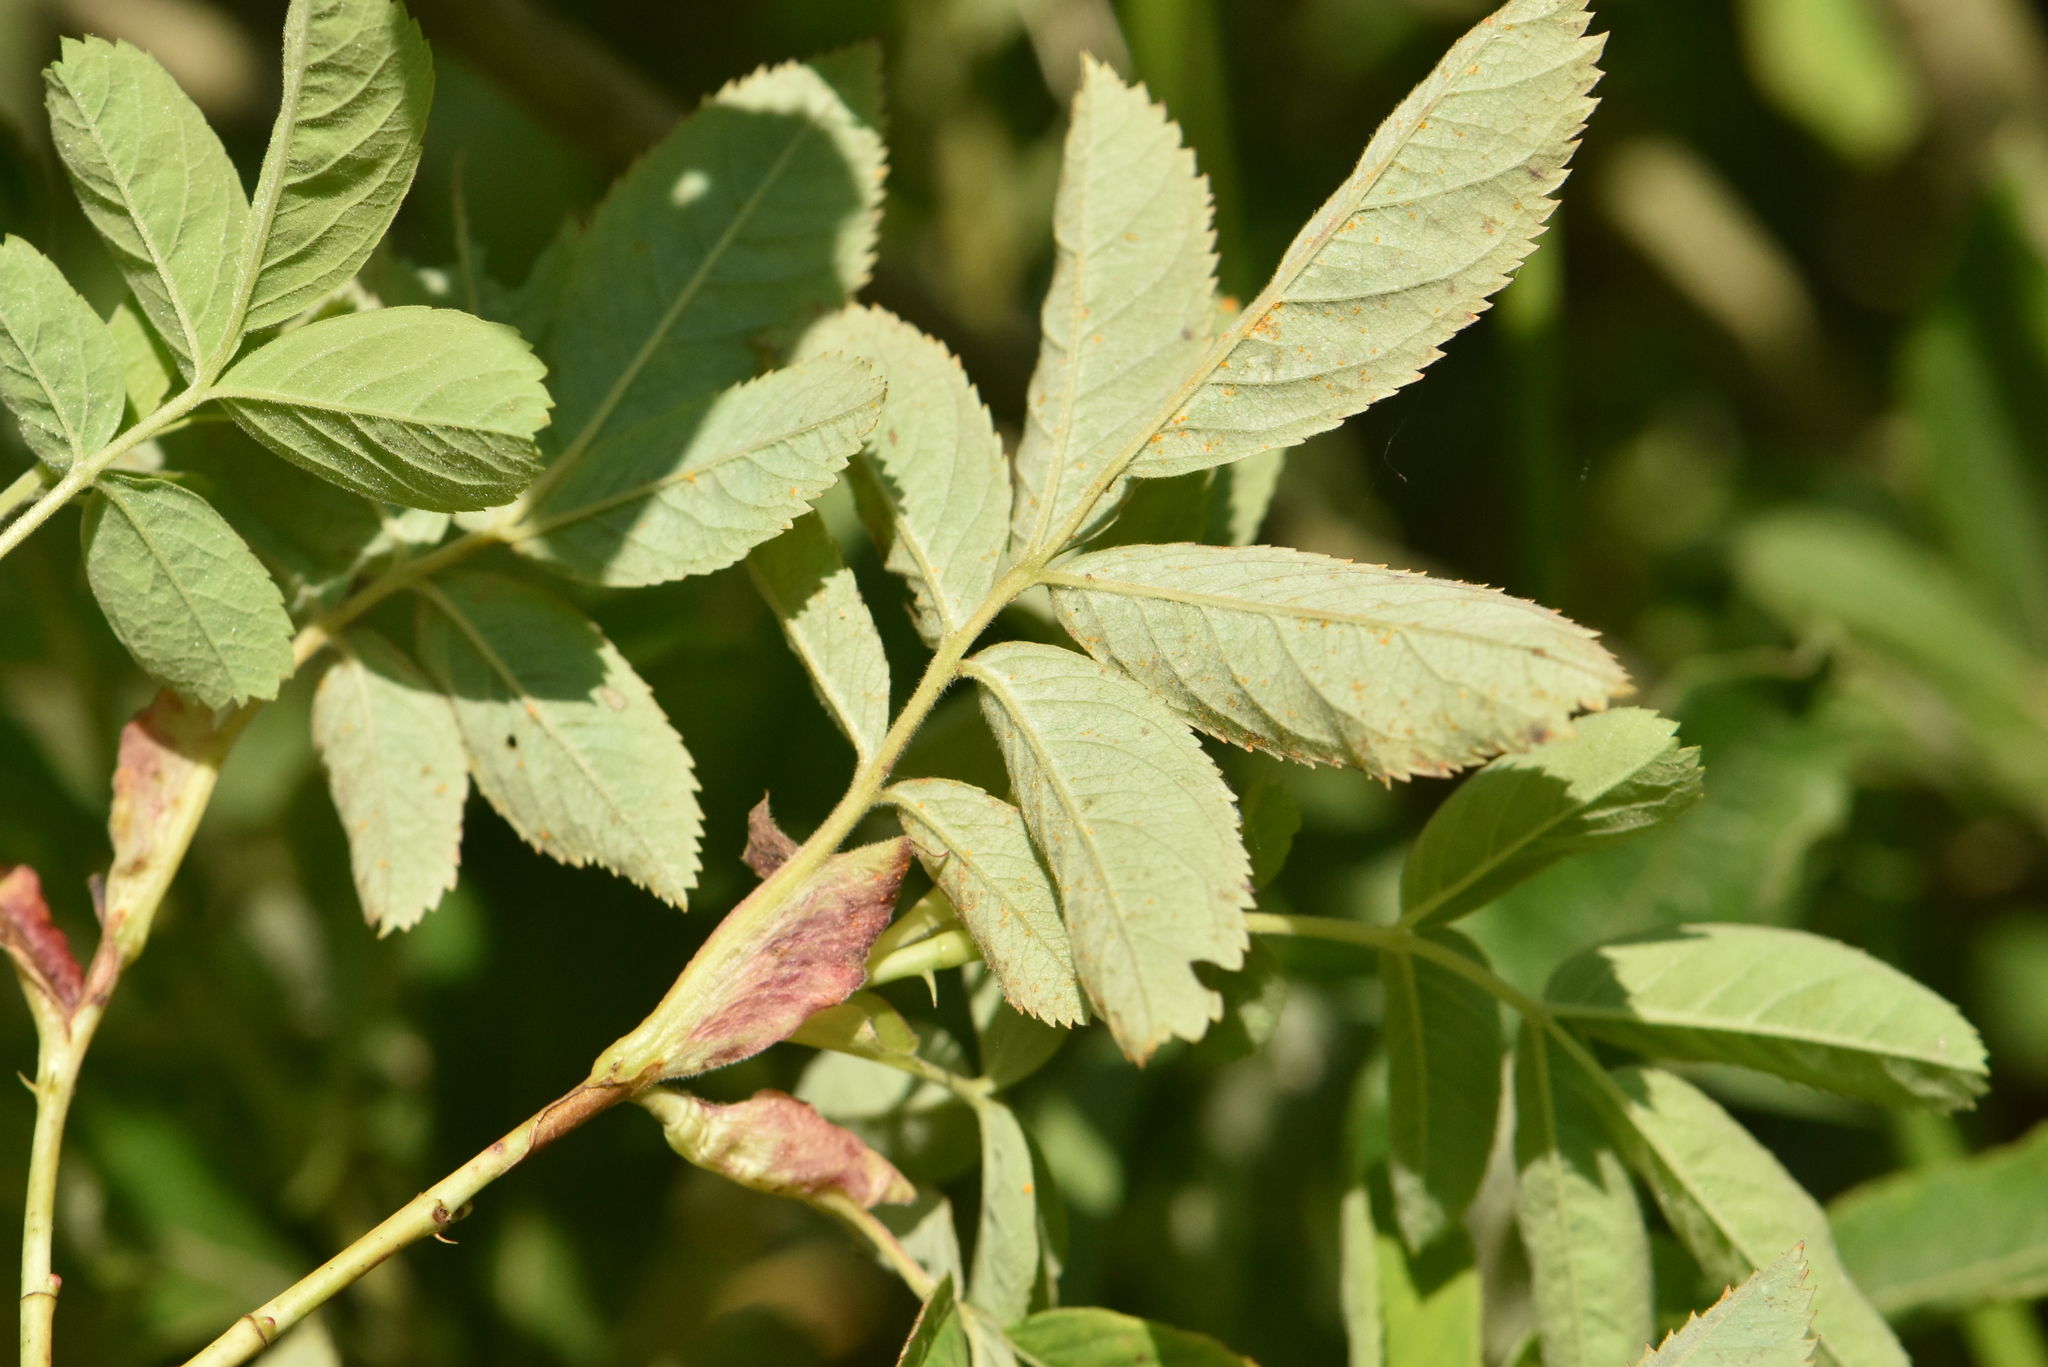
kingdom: Plantae
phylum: Tracheophyta
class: Magnoliopsida
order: Rosales
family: Rosaceae
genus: Rosa
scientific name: Rosa majalis
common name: Cinnamon rose
